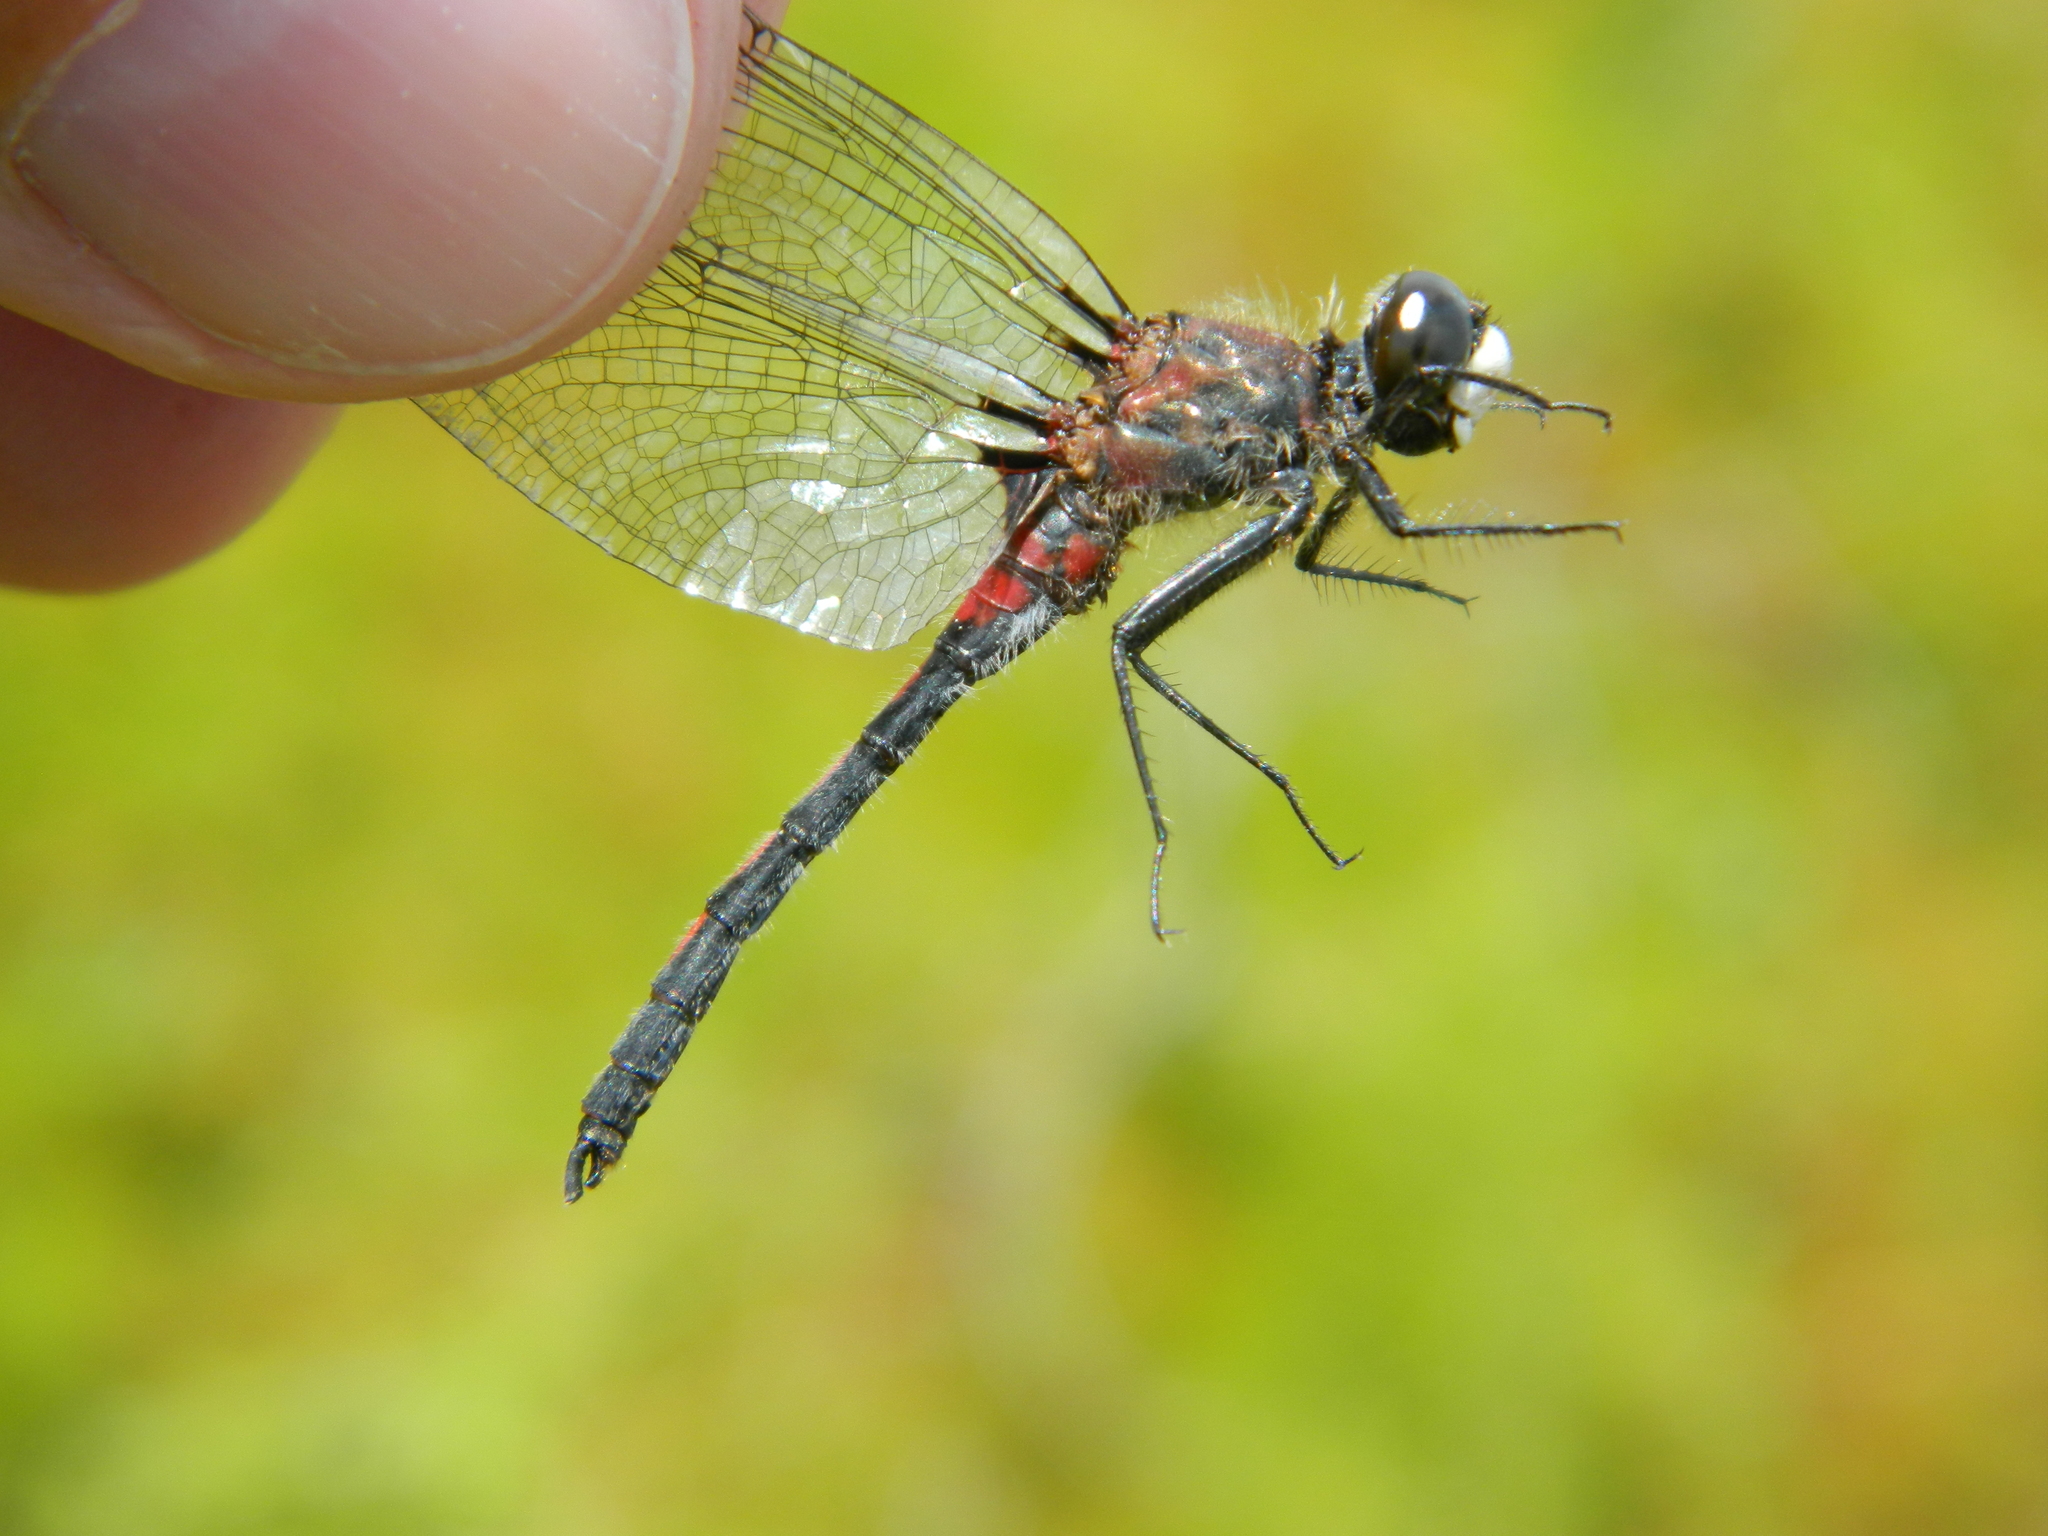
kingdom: Animalia
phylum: Arthropoda
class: Insecta
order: Odonata
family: Libellulidae
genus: Leucorrhinia
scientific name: Leucorrhinia hudsonica
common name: Hudsonian whiteface
